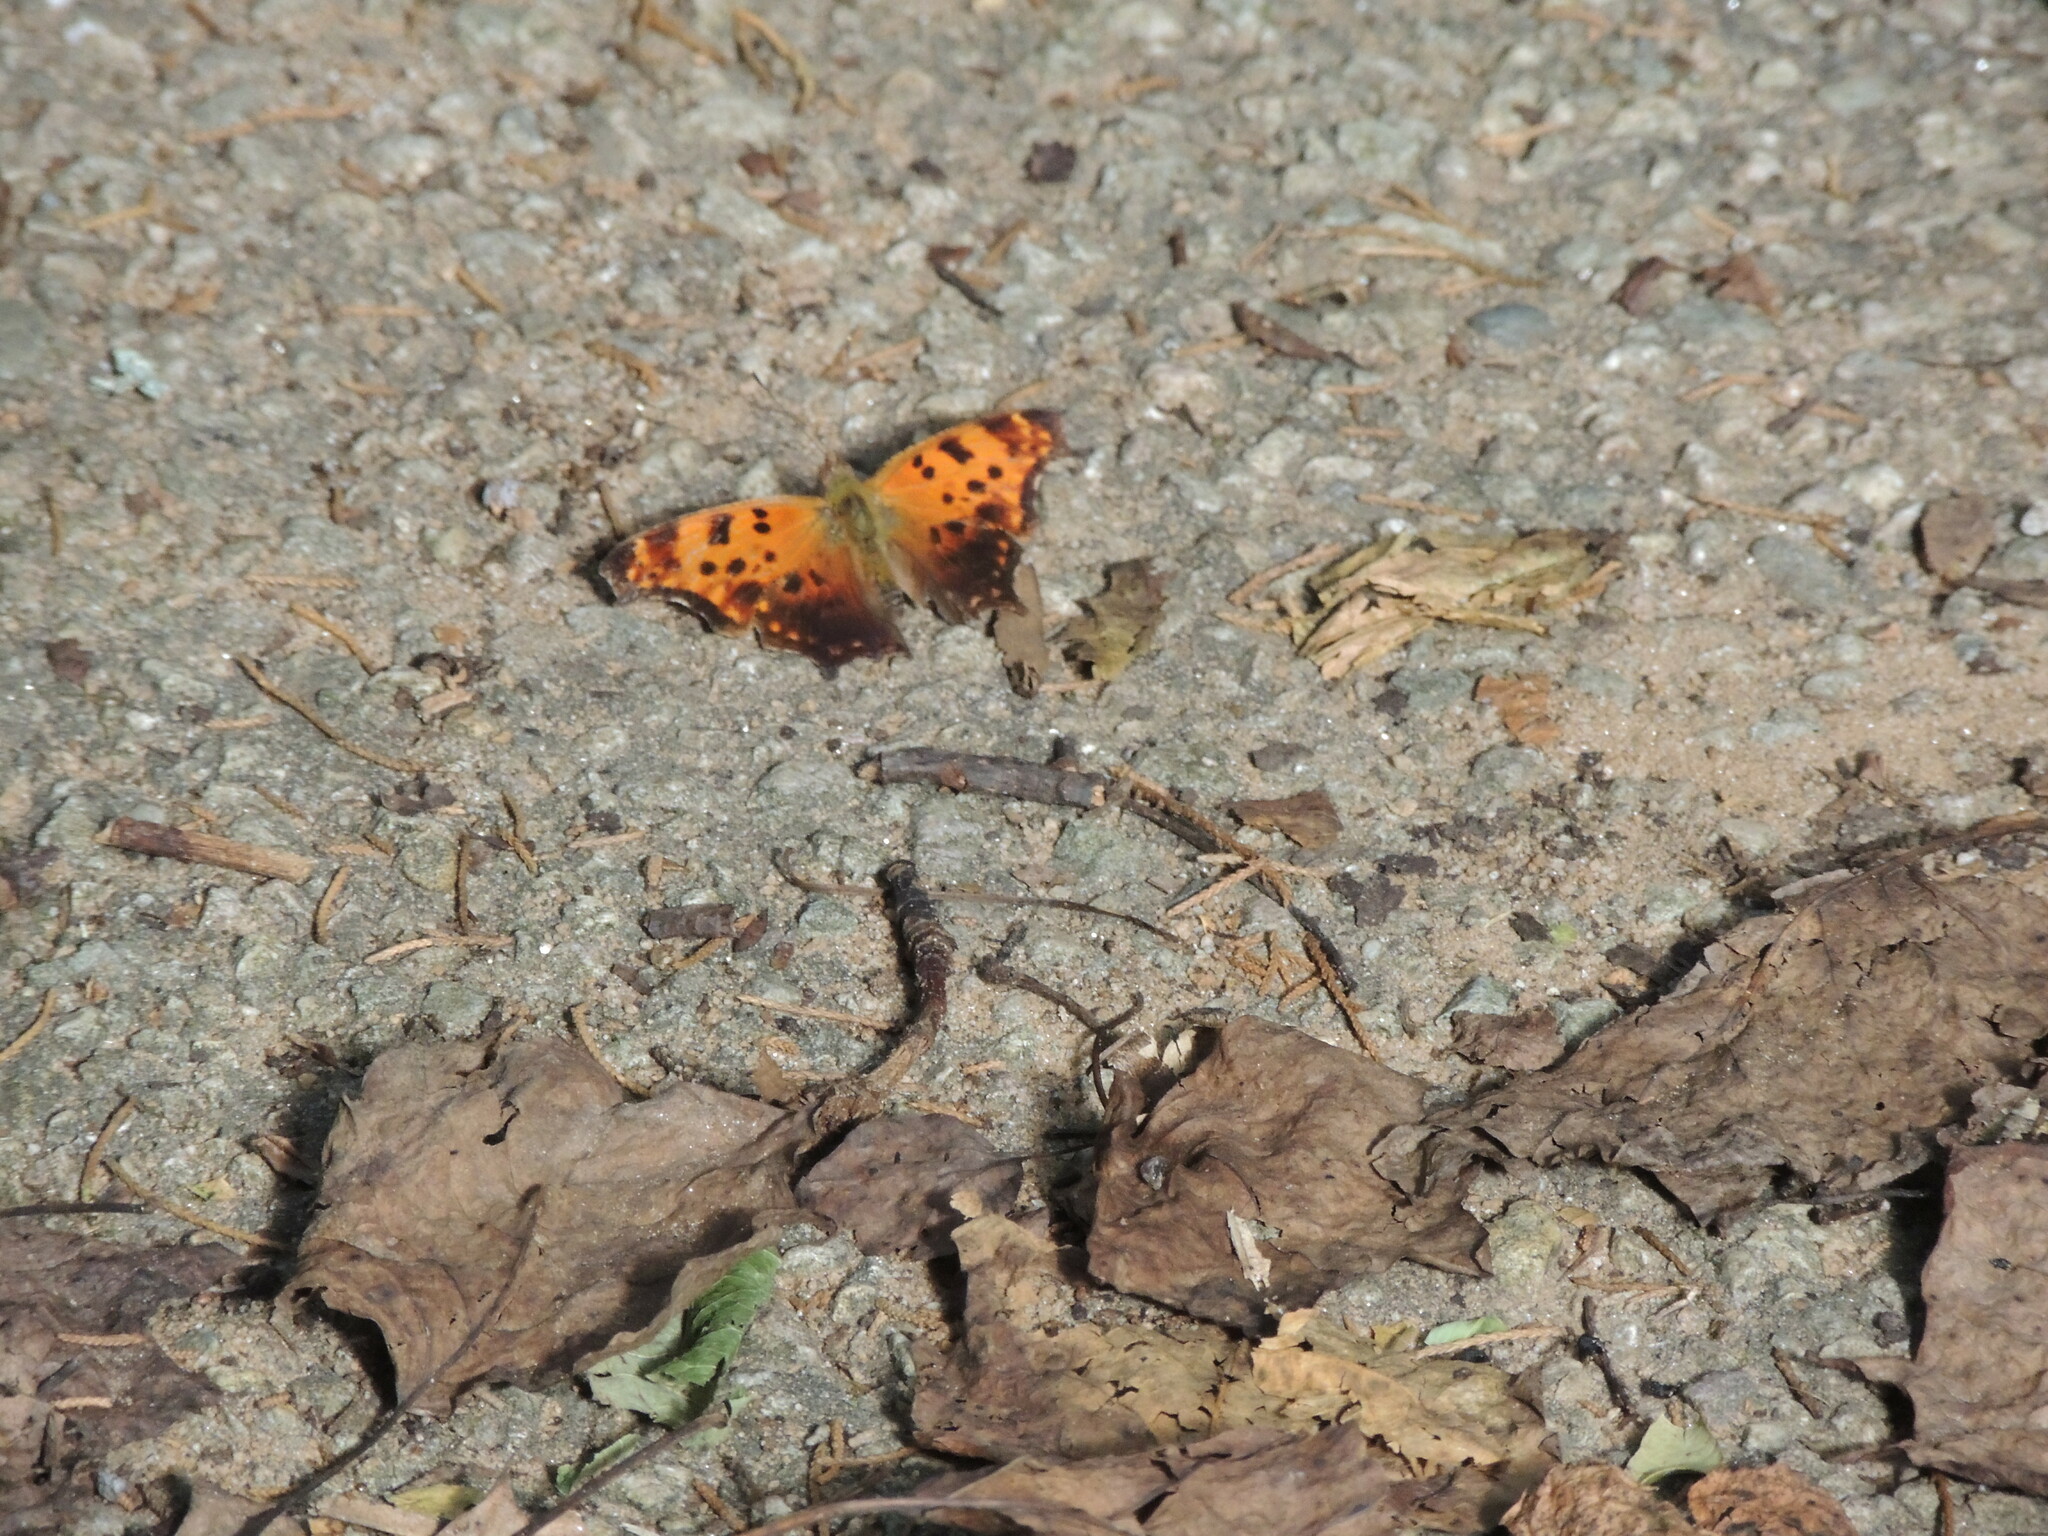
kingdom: Animalia
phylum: Arthropoda
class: Insecta
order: Lepidoptera
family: Nymphalidae
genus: Polygonia
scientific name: Polygonia comma
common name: Eastern comma
